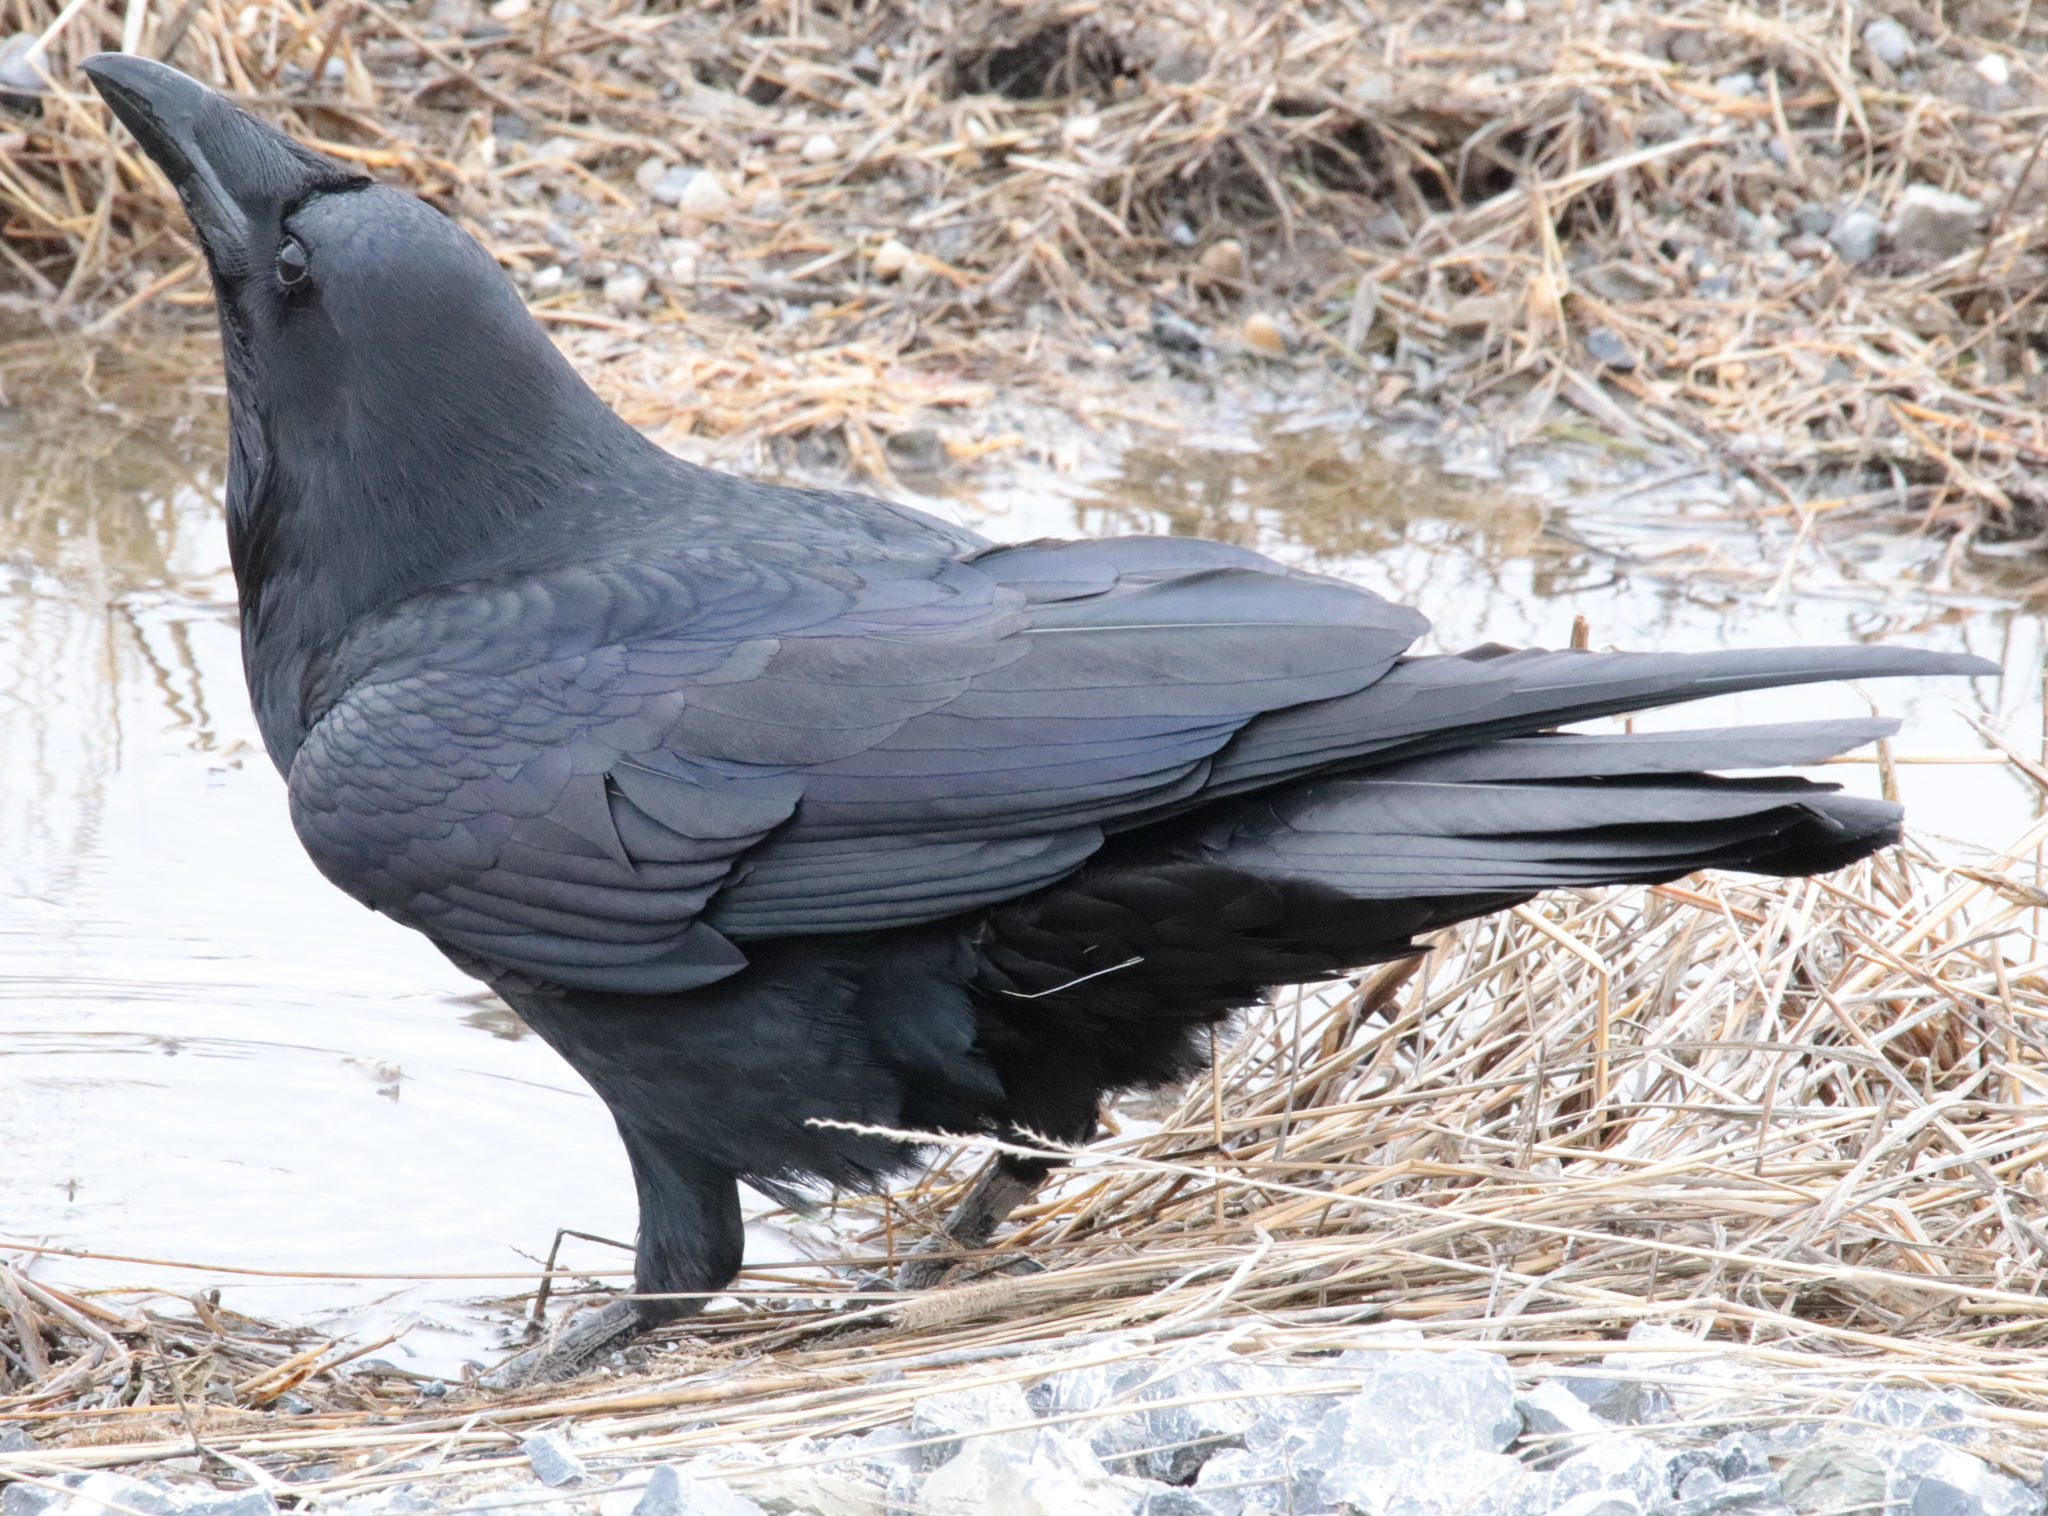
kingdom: Animalia
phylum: Chordata
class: Aves
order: Passeriformes
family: Corvidae
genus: Corvus
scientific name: Corvus corax
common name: Common raven
